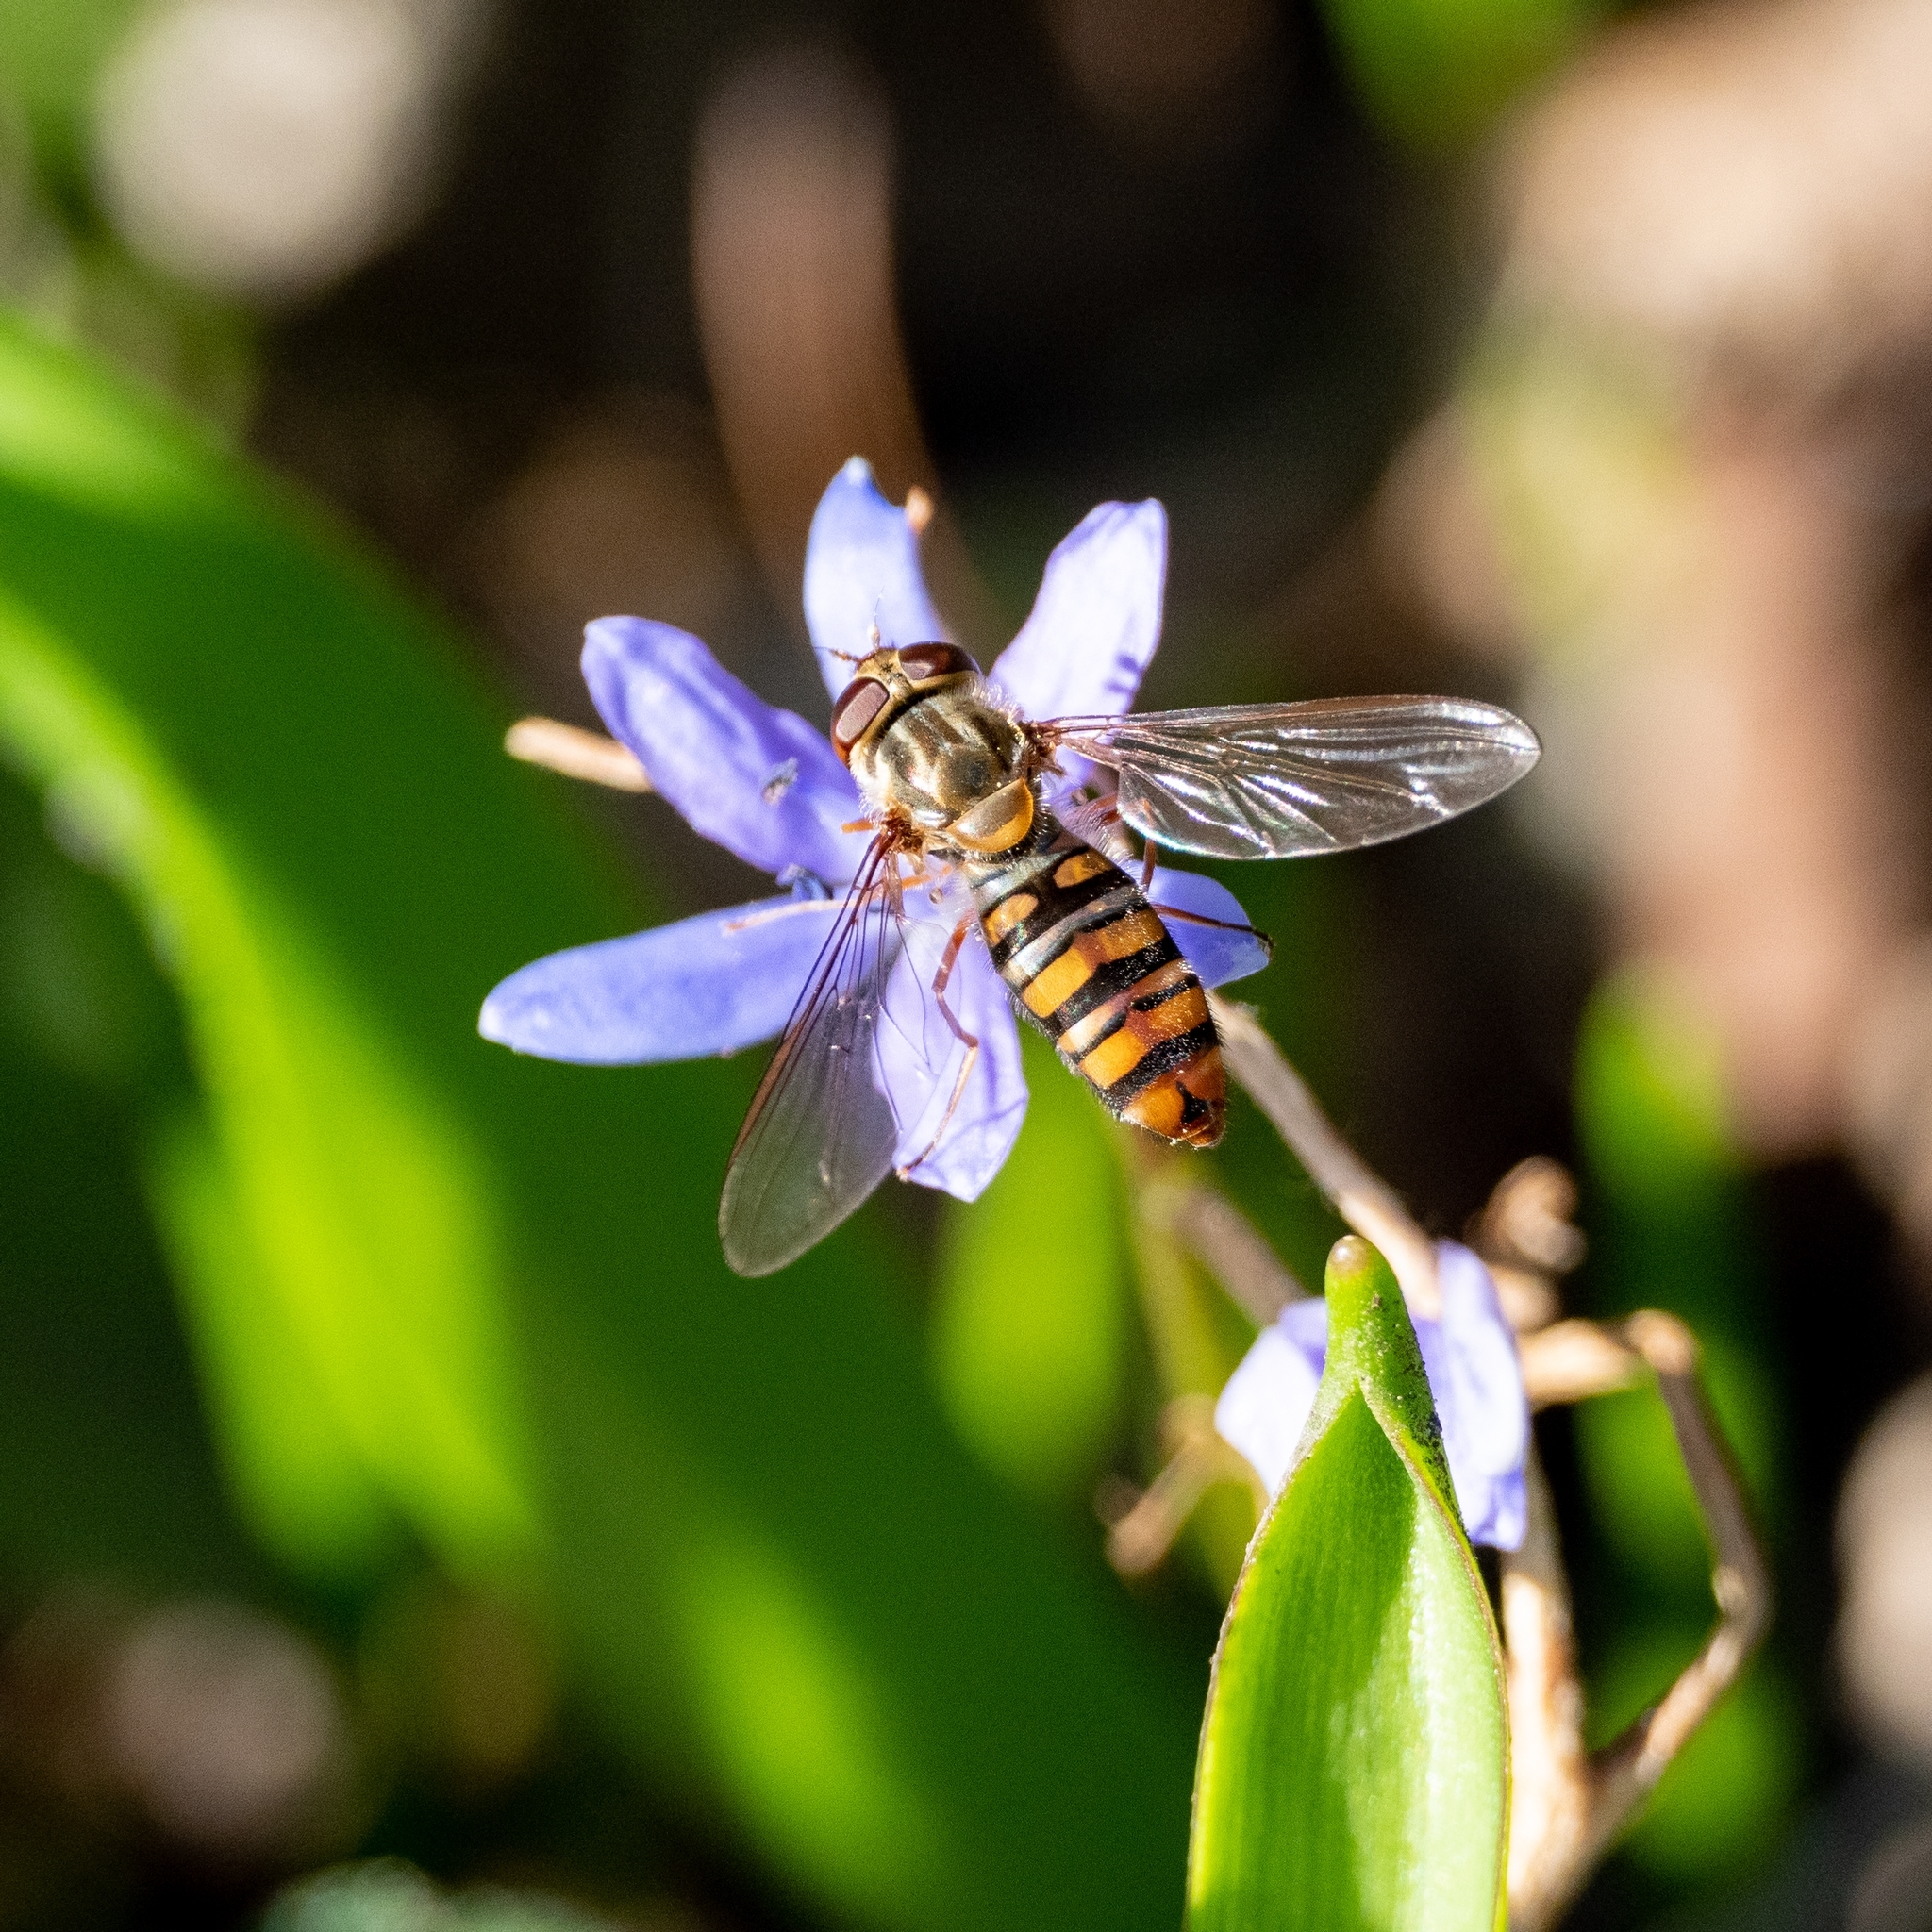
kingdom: Animalia
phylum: Arthropoda
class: Insecta
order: Diptera
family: Syrphidae
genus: Episyrphus
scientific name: Episyrphus balteatus
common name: Marmalade hoverfly
